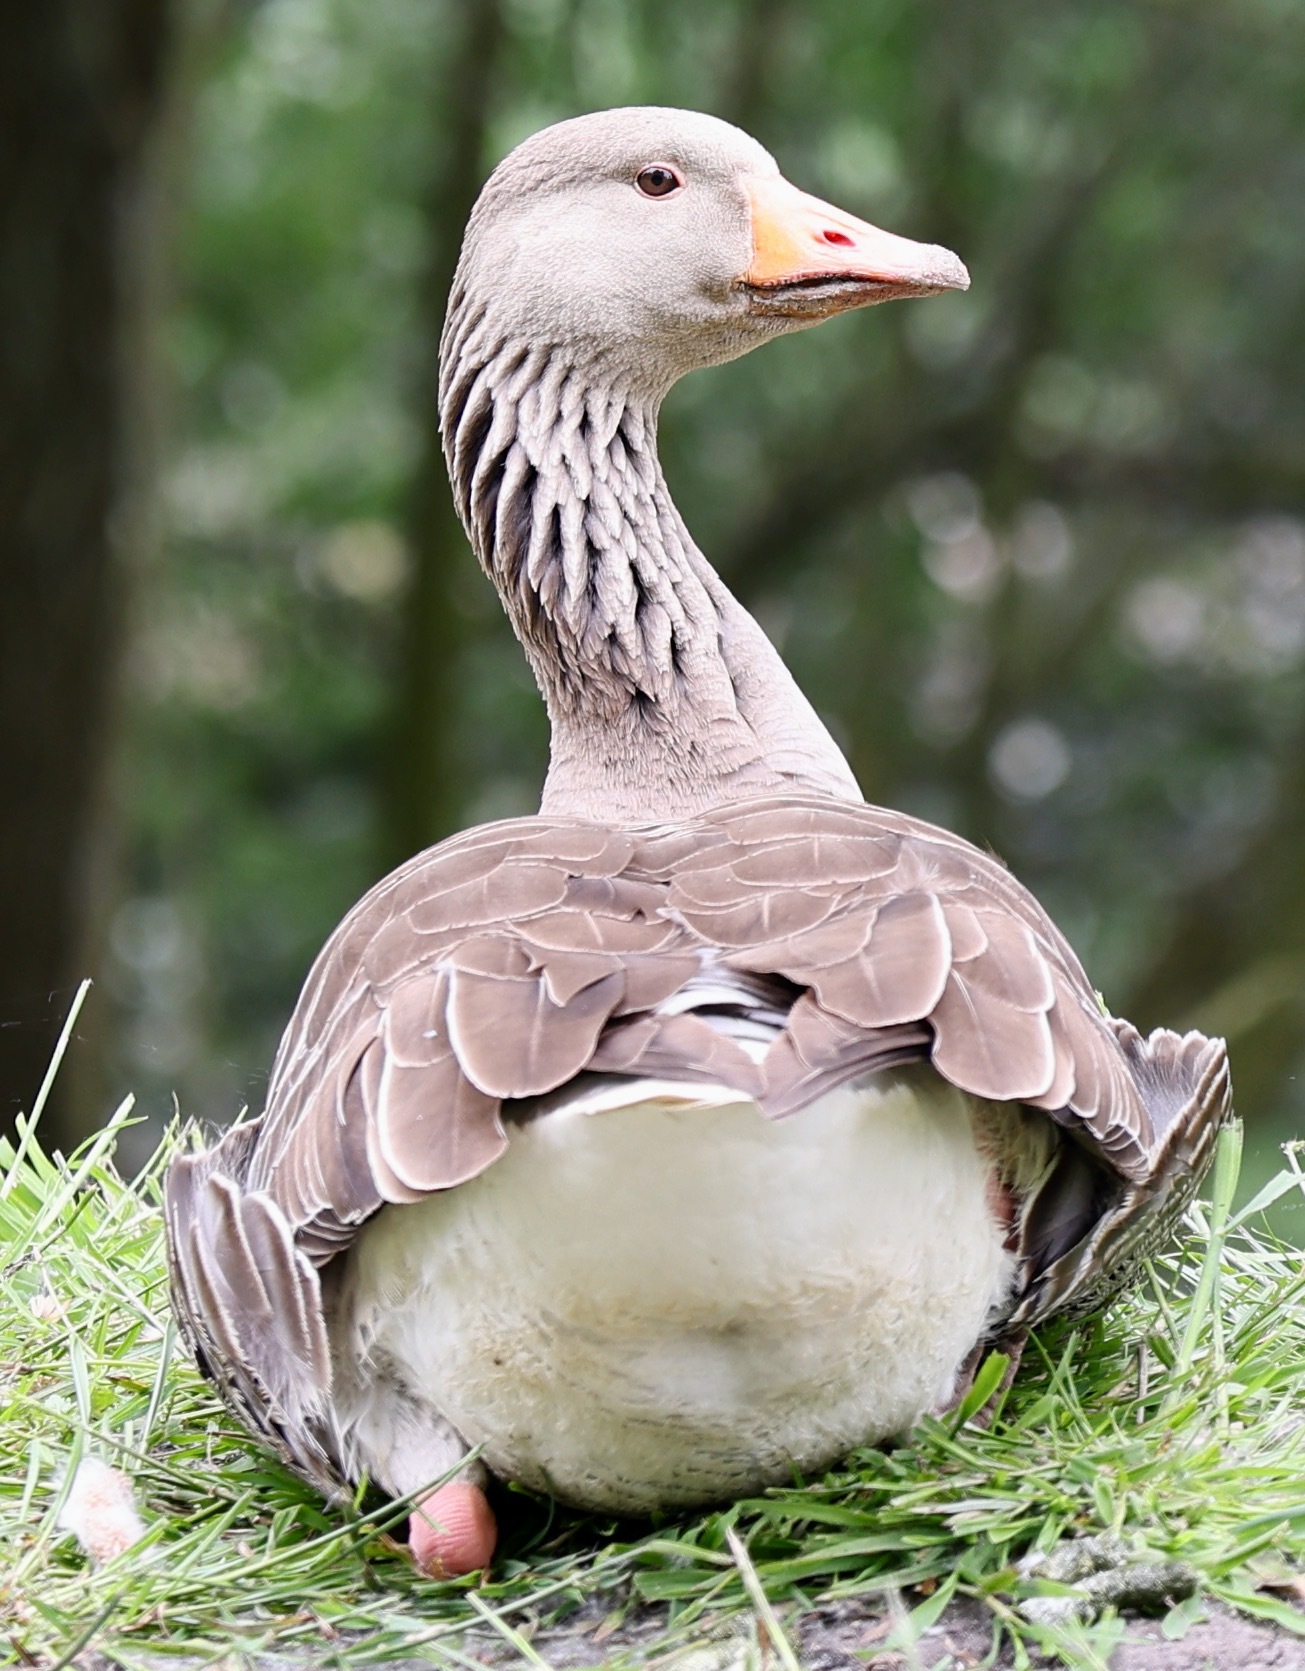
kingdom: Animalia
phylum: Chordata
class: Aves
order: Anseriformes
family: Anatidae
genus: Anser
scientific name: Anser anser
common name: Greylag goose
